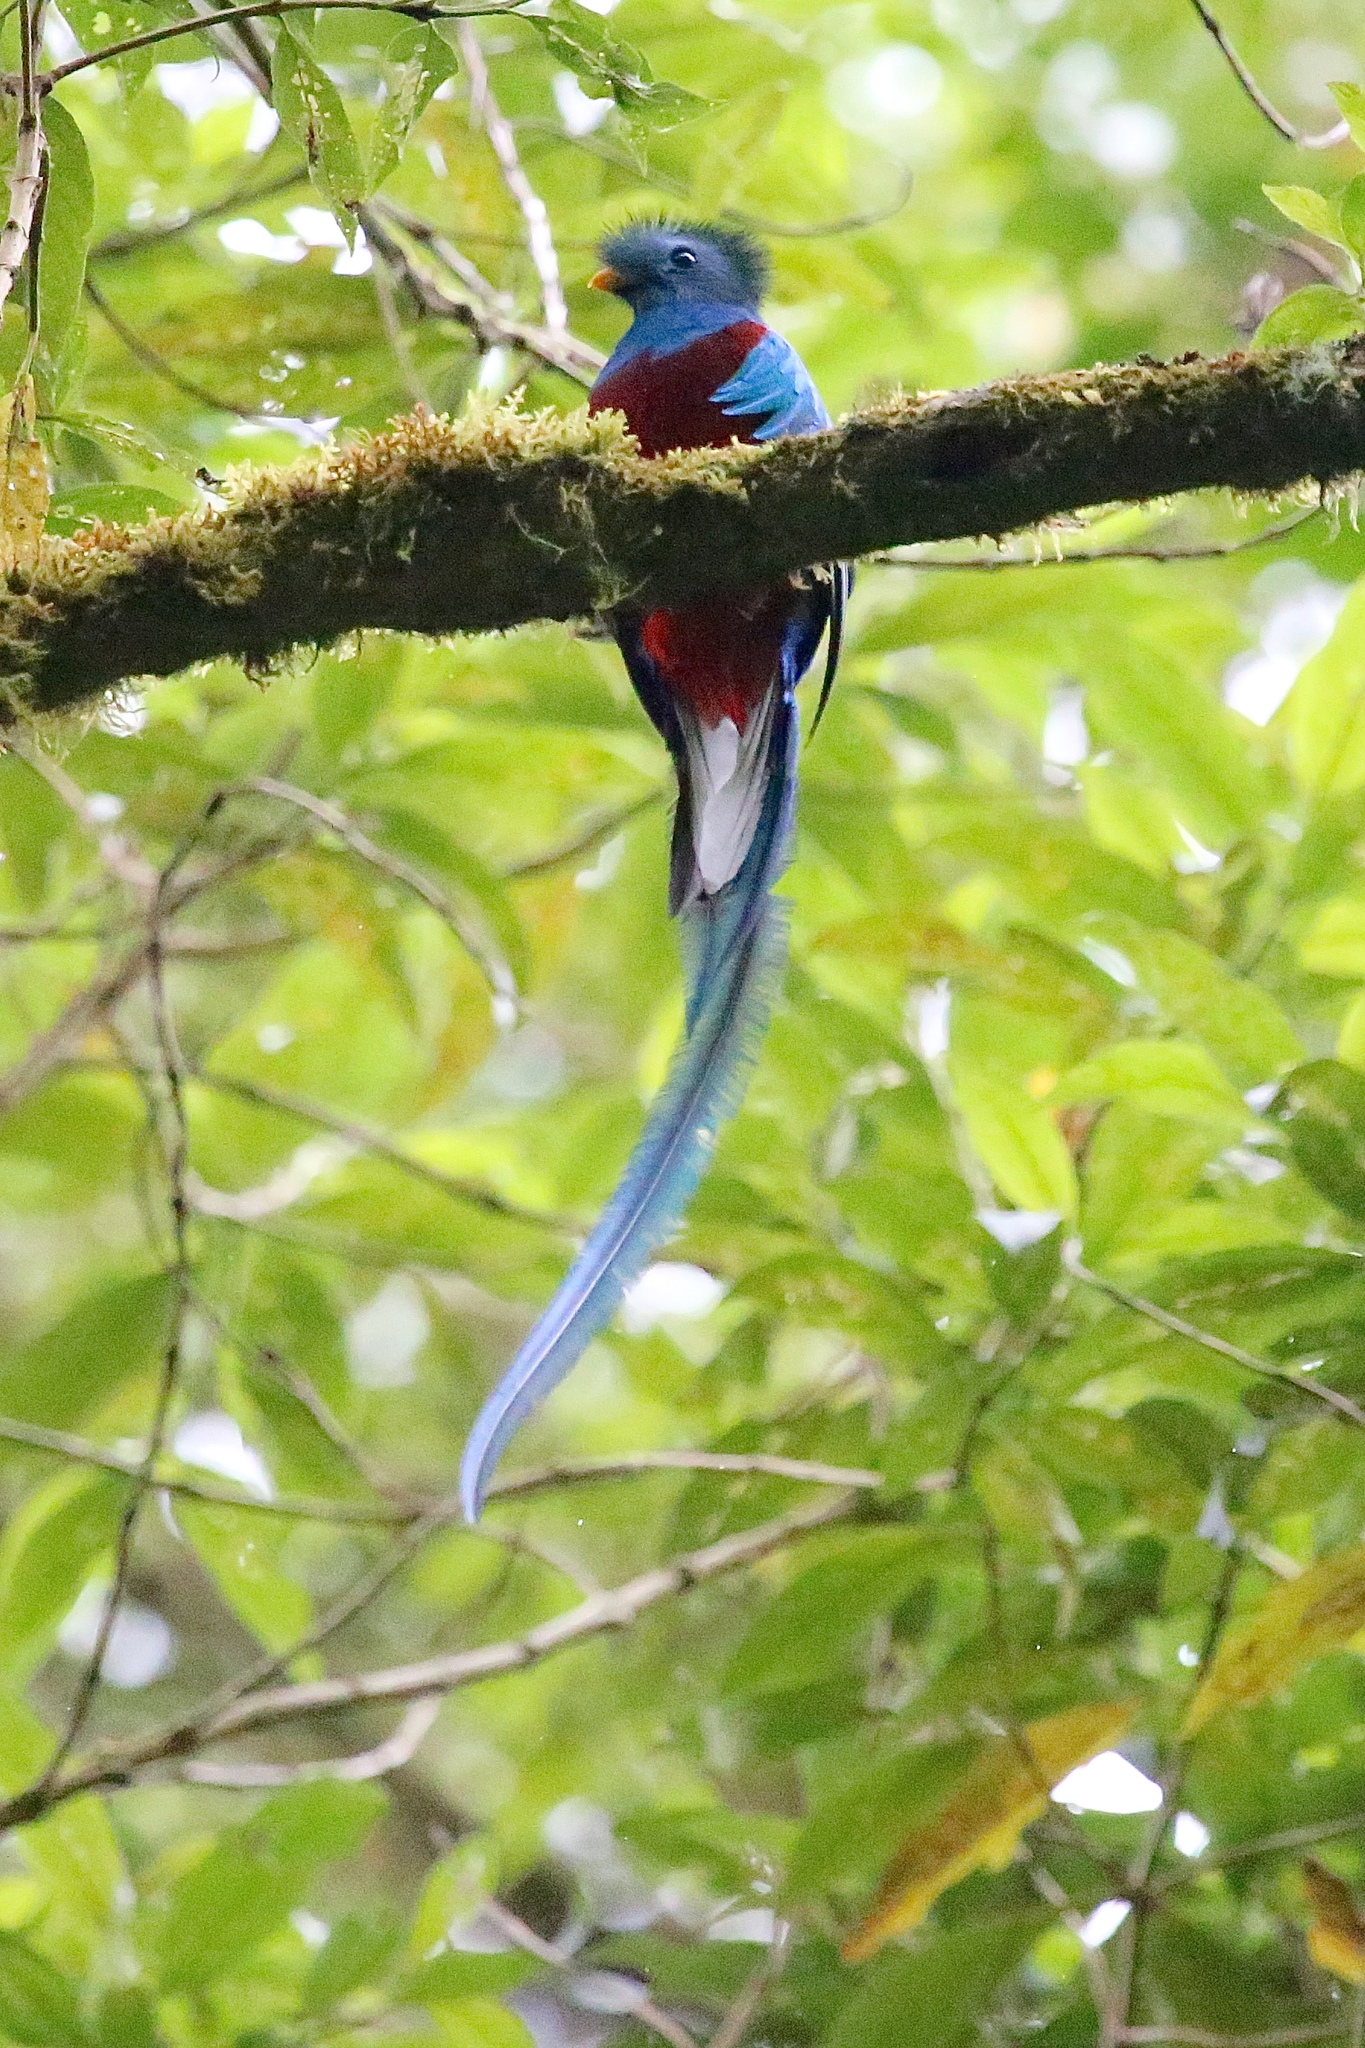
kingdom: Animalia
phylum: Chordata
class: Aves
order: Trogoniformes
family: Trogonidae
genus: Pharomachrus
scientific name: Pharomachrus mocinno
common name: Resplendent quetzal
